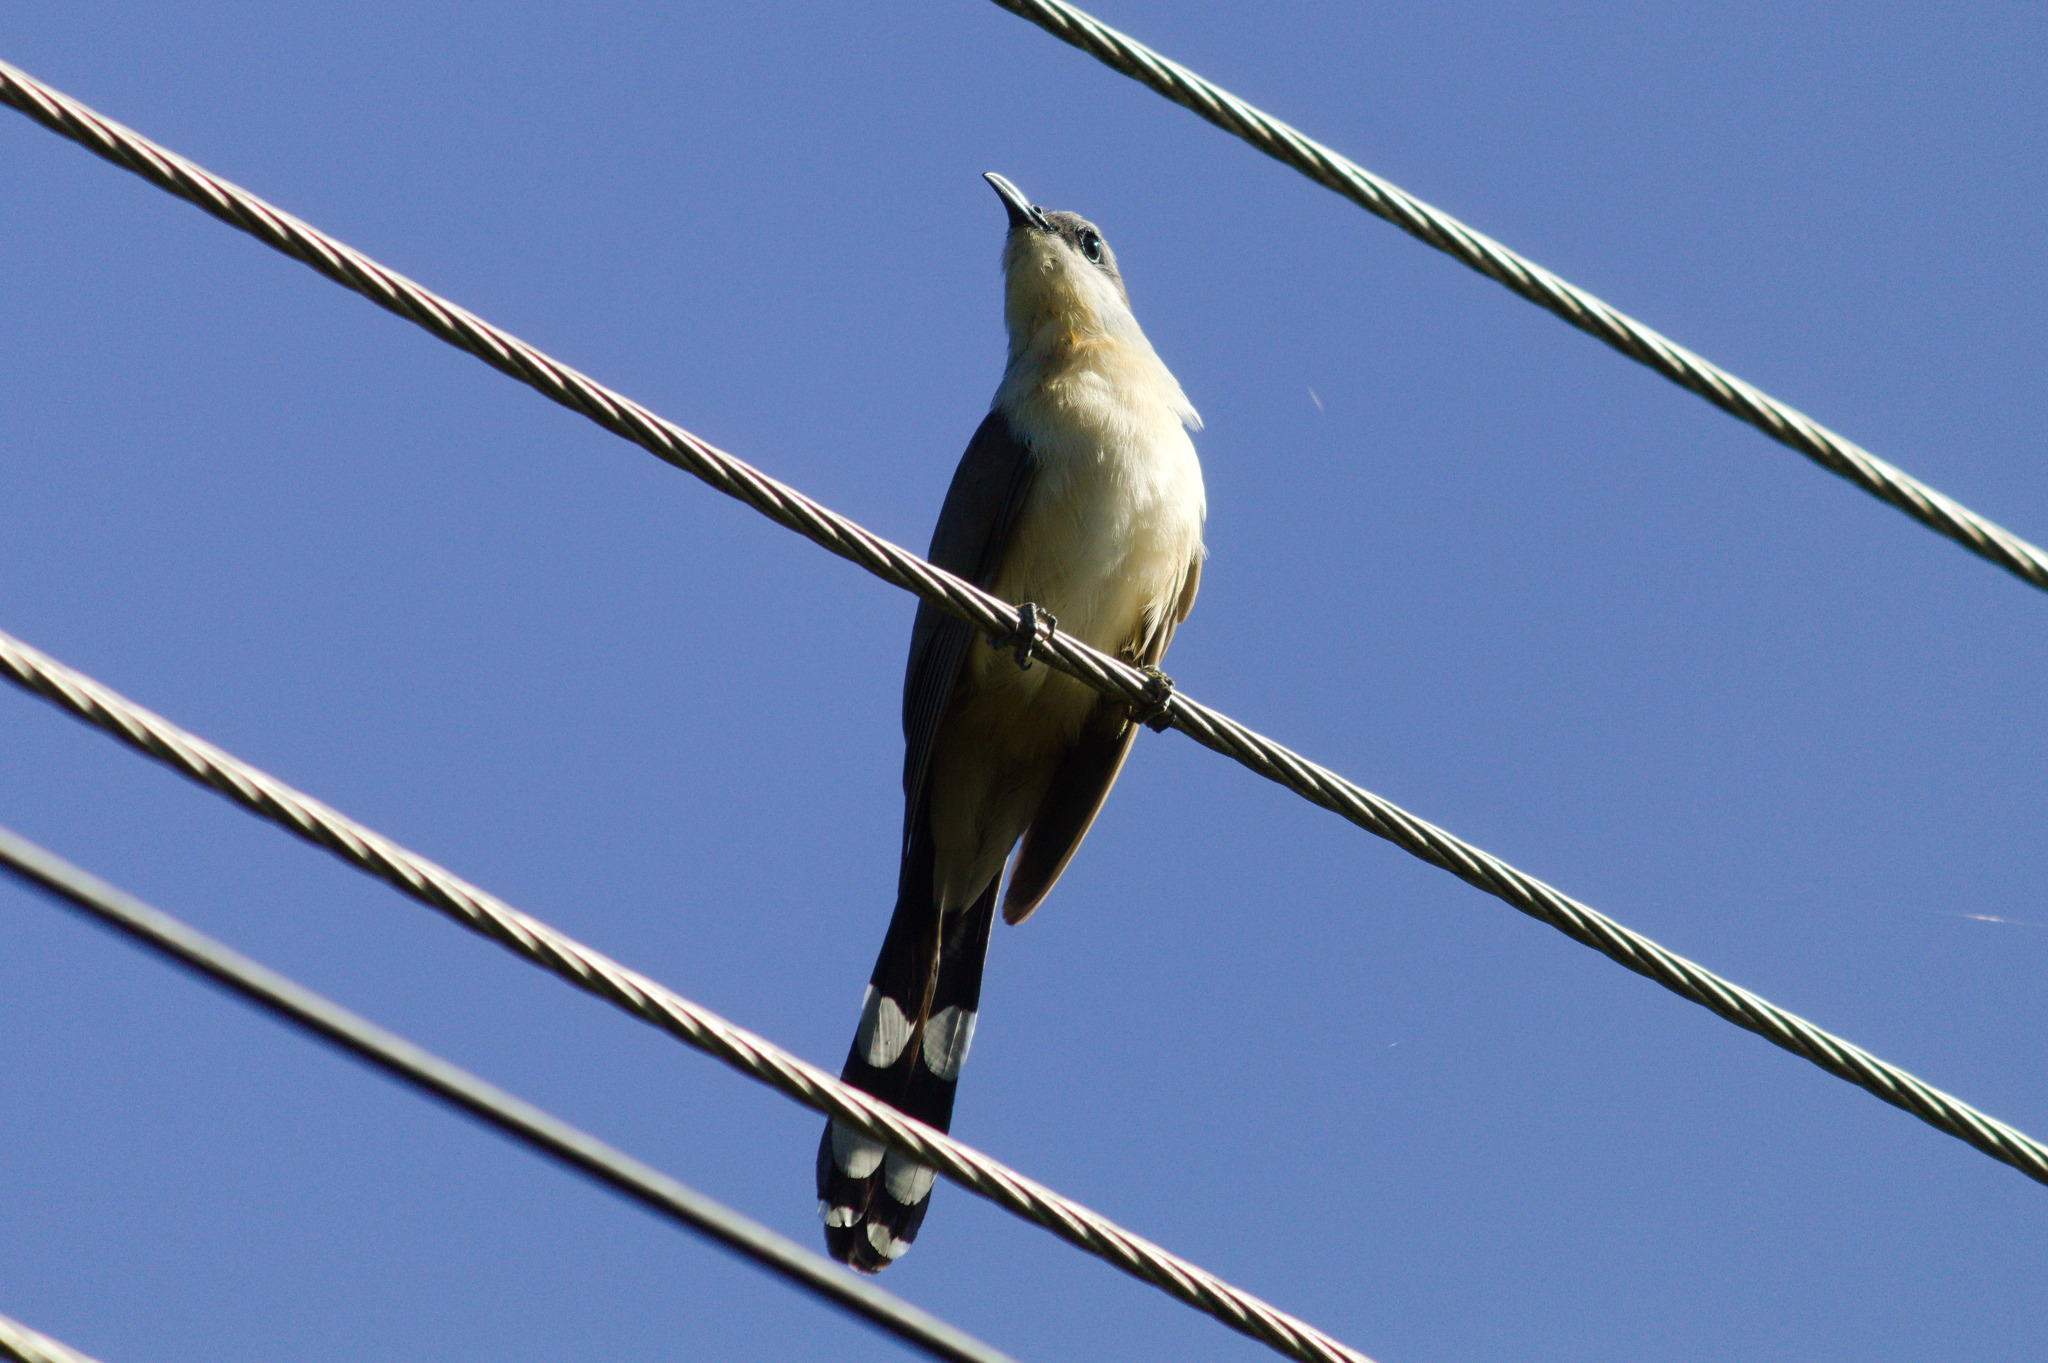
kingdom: Animalia
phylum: Chordata
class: Aves
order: Cuculiformes
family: Cuculidae
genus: Coccyzus
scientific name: Coccyzus melacoryphus
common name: Dark-billed cuckoo
